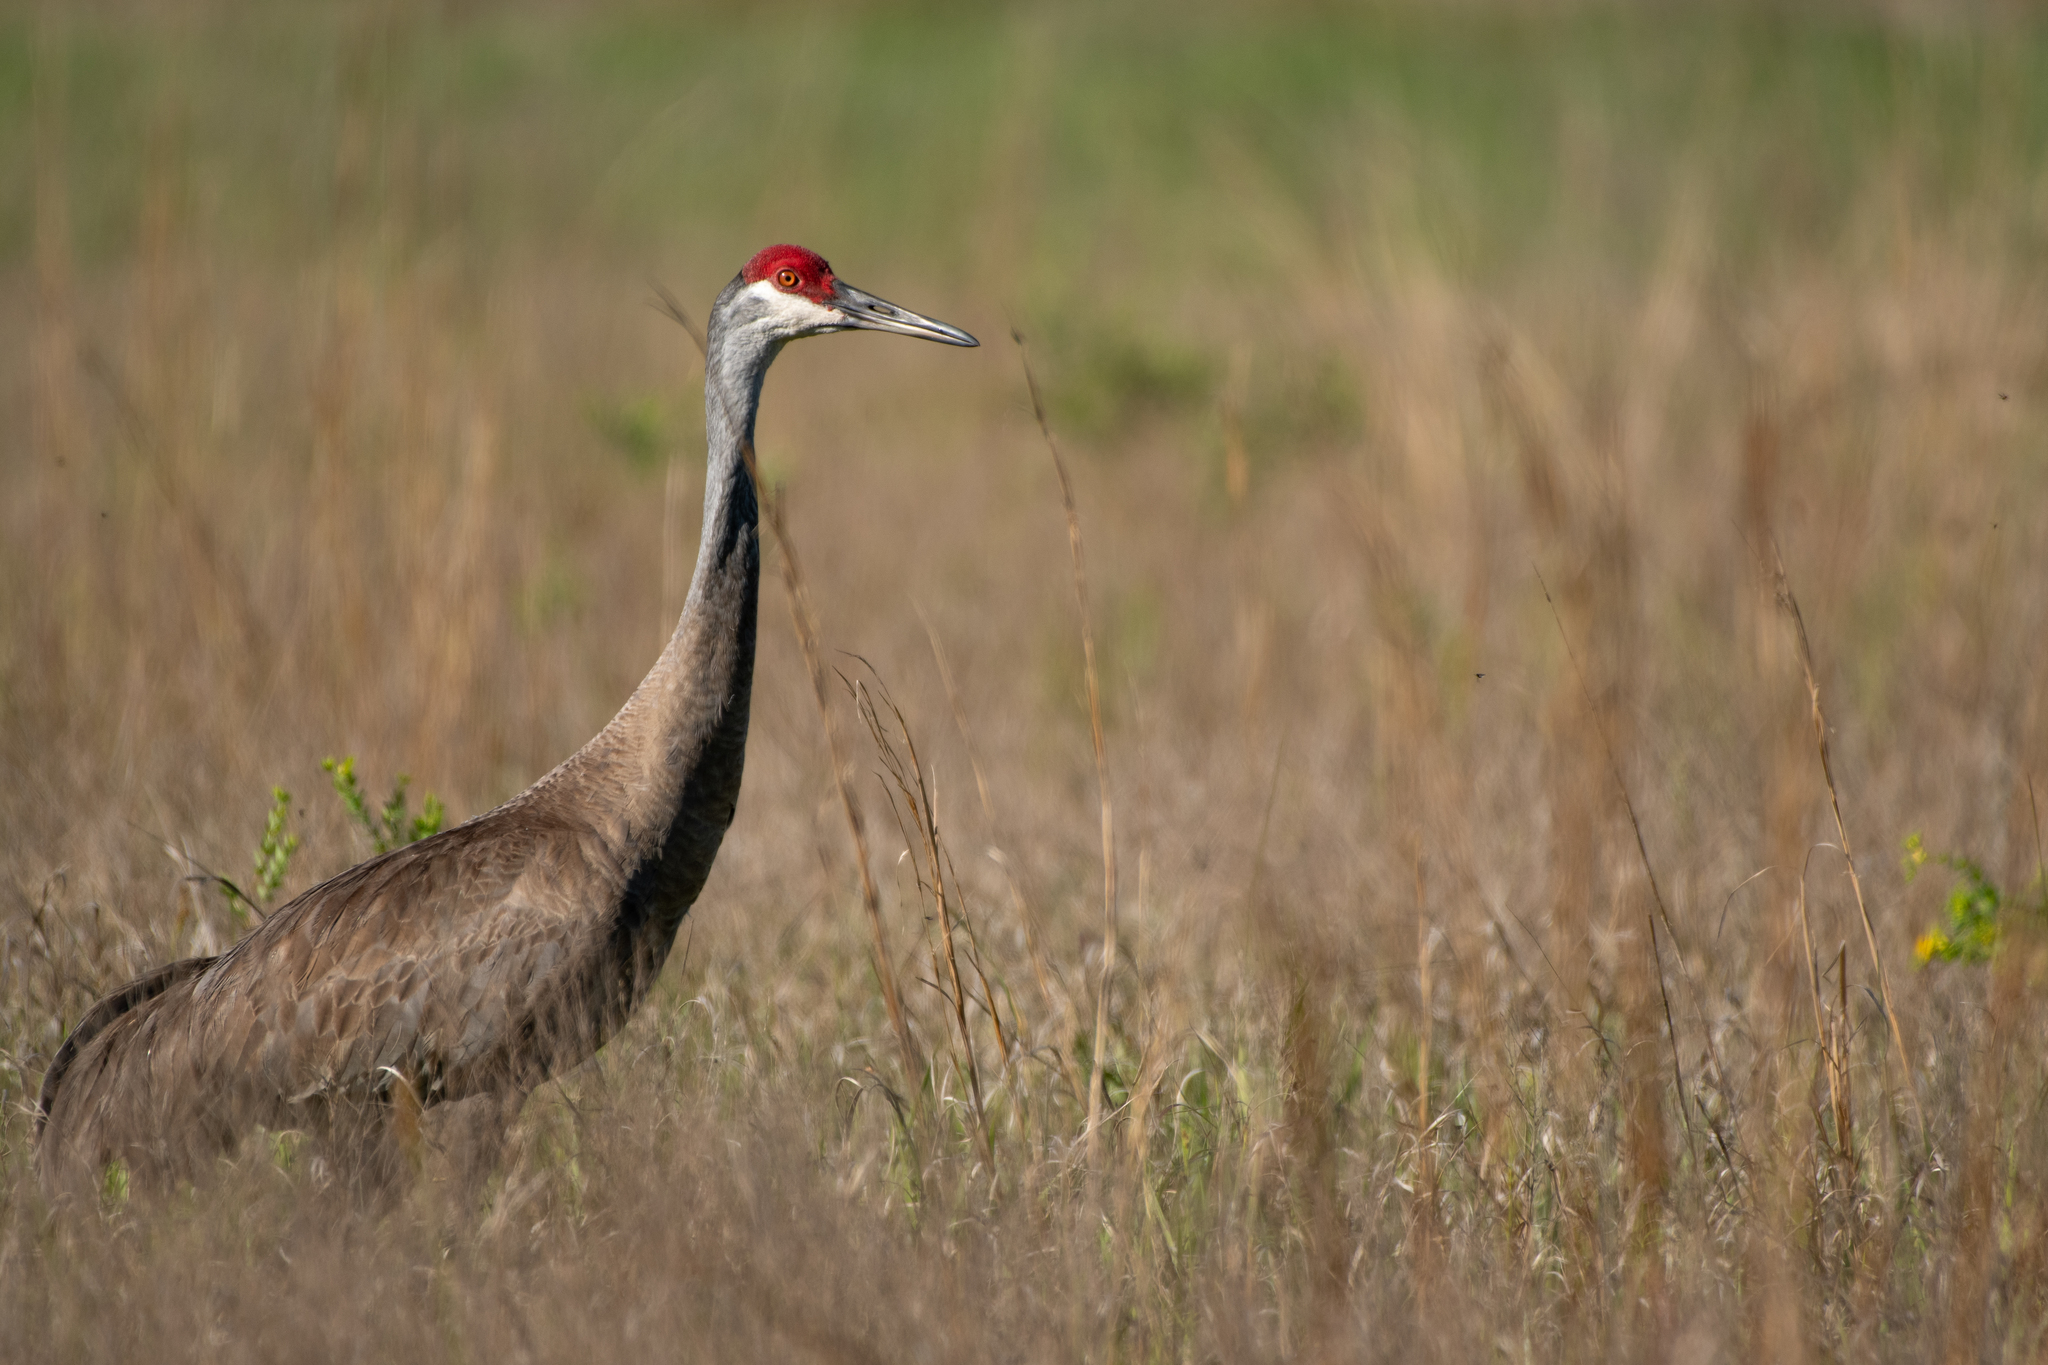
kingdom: Animalia
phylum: Chordata
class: Aves
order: Gruiformes
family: Gruidae
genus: Grus
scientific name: Grus canadensis
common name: Sandhill crane
